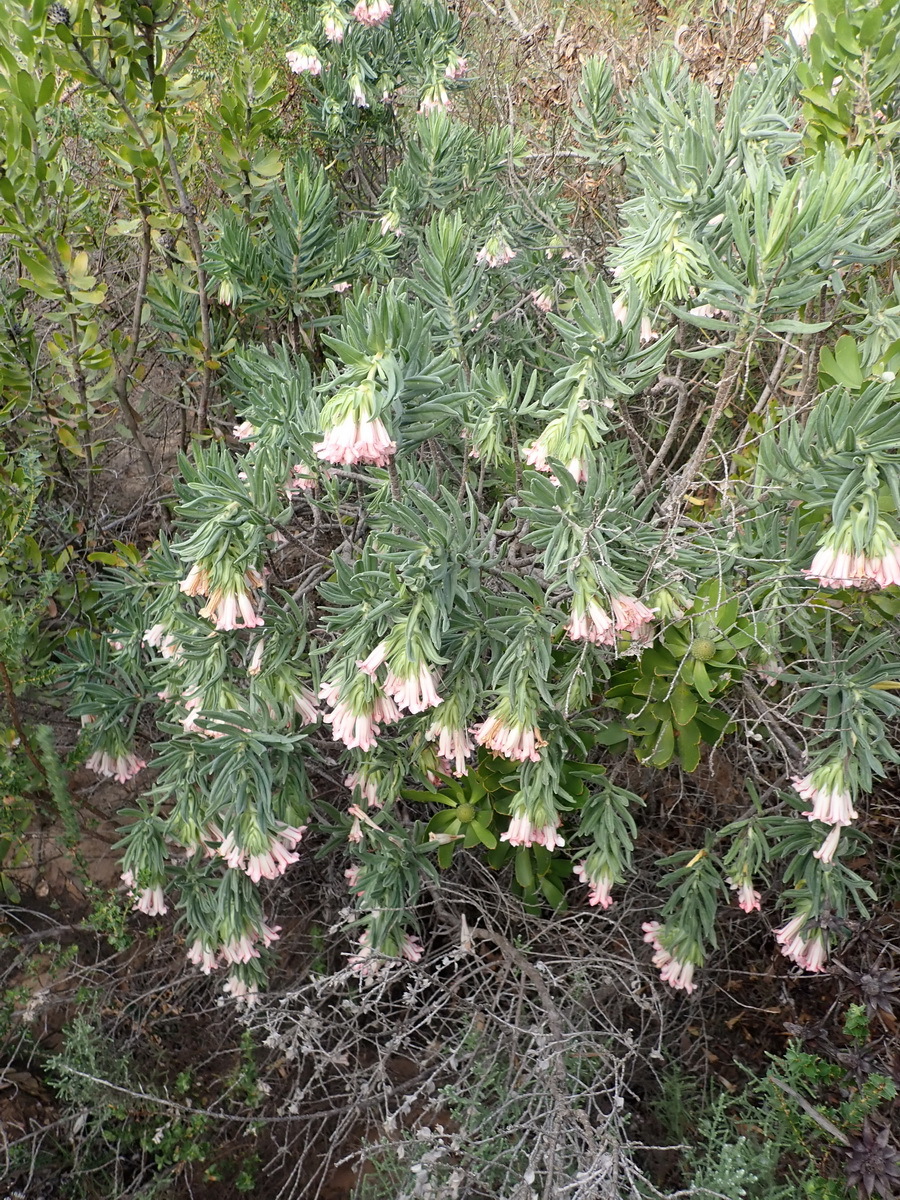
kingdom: Plantae
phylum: Tracheophyta
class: Magnoliopsida
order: Boraginales
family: Boraginaceae
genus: Lobostemon
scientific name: Lobostemon belliformis
